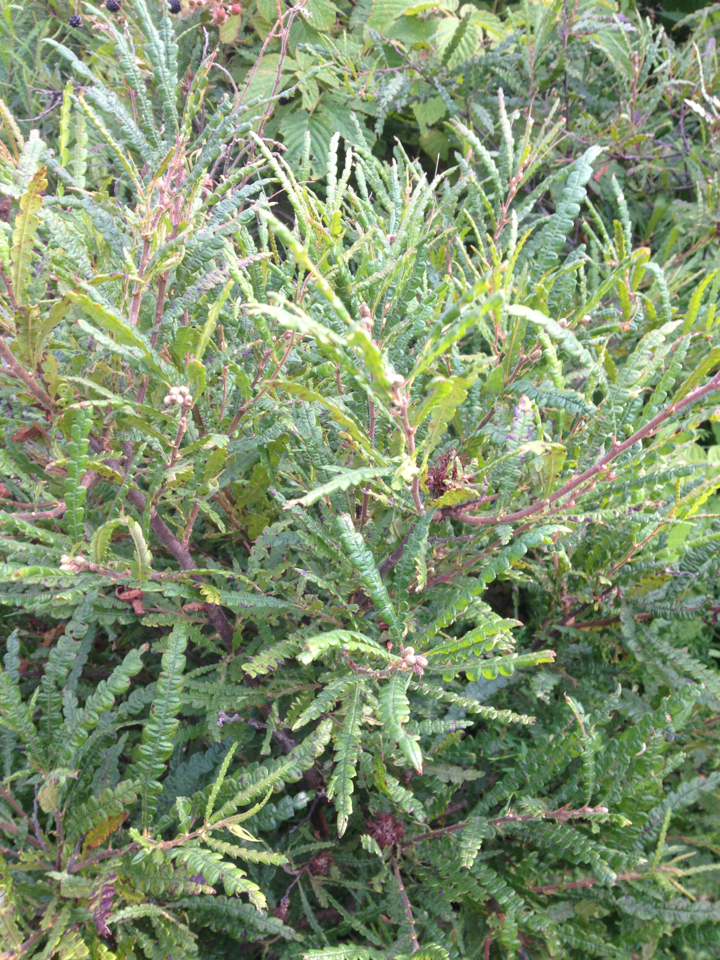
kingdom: Plantae
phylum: Tracheophyta
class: Magnoliopsida
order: Fagales
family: Myricaceae
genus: Comptonia
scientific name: Comptonia peregrina
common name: Sweet-fern
